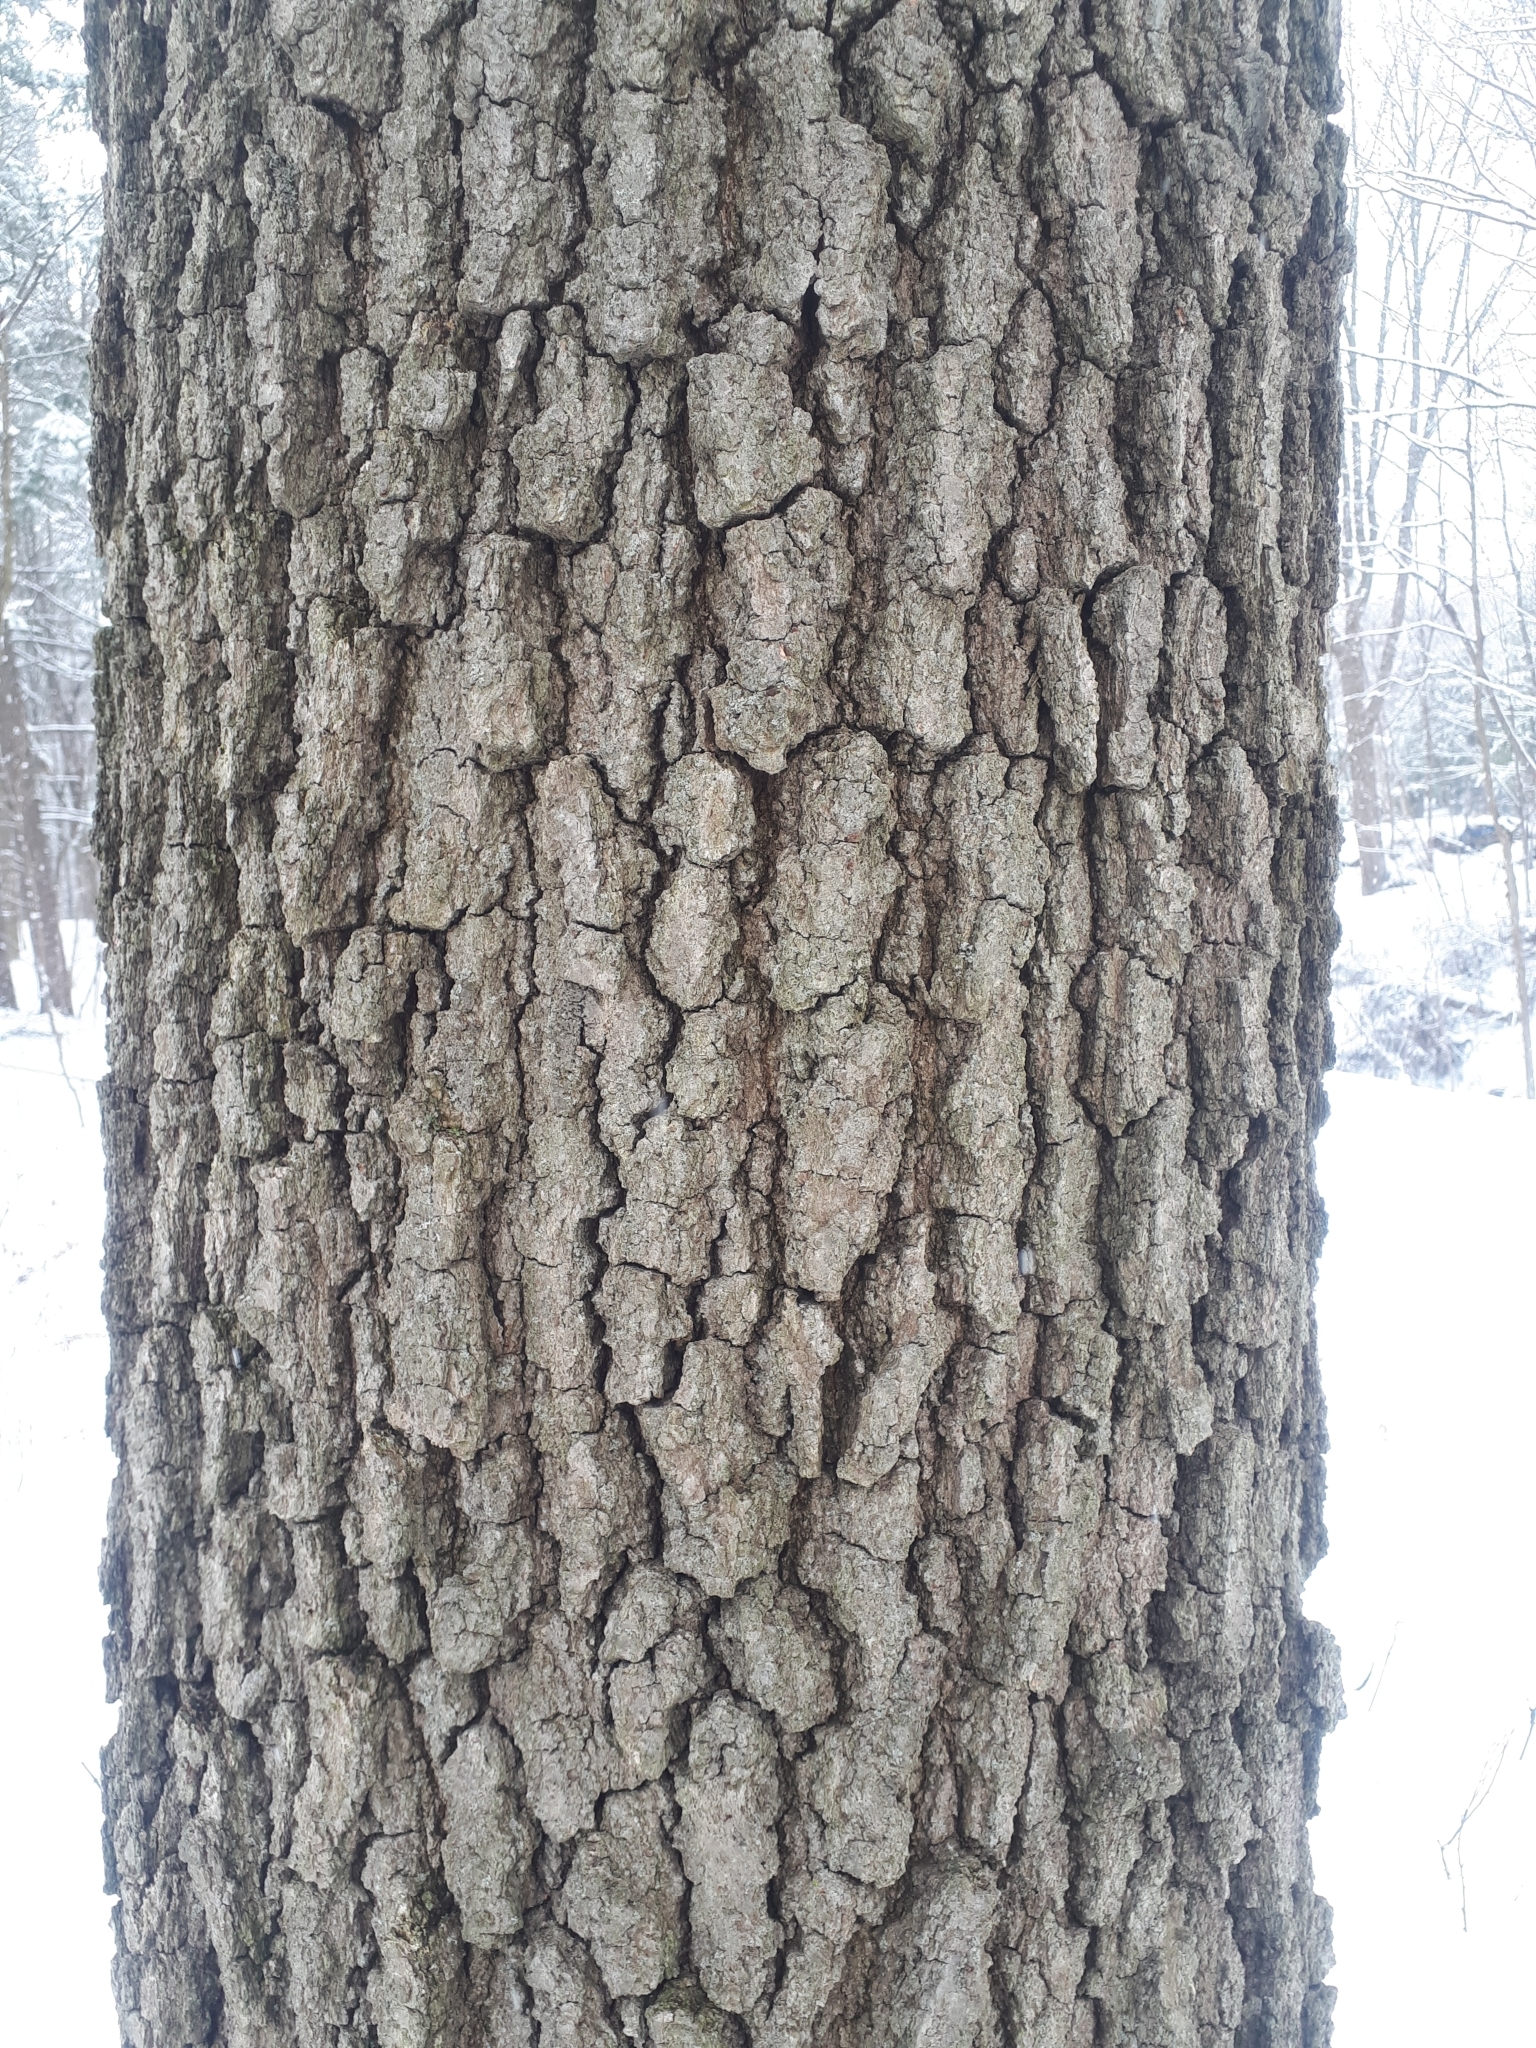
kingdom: Plantae
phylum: Tracheophyta
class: Magnoliopsida
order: Fagales
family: Fagaceae
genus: Quercus
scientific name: Quercus velutina
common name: Black oak
